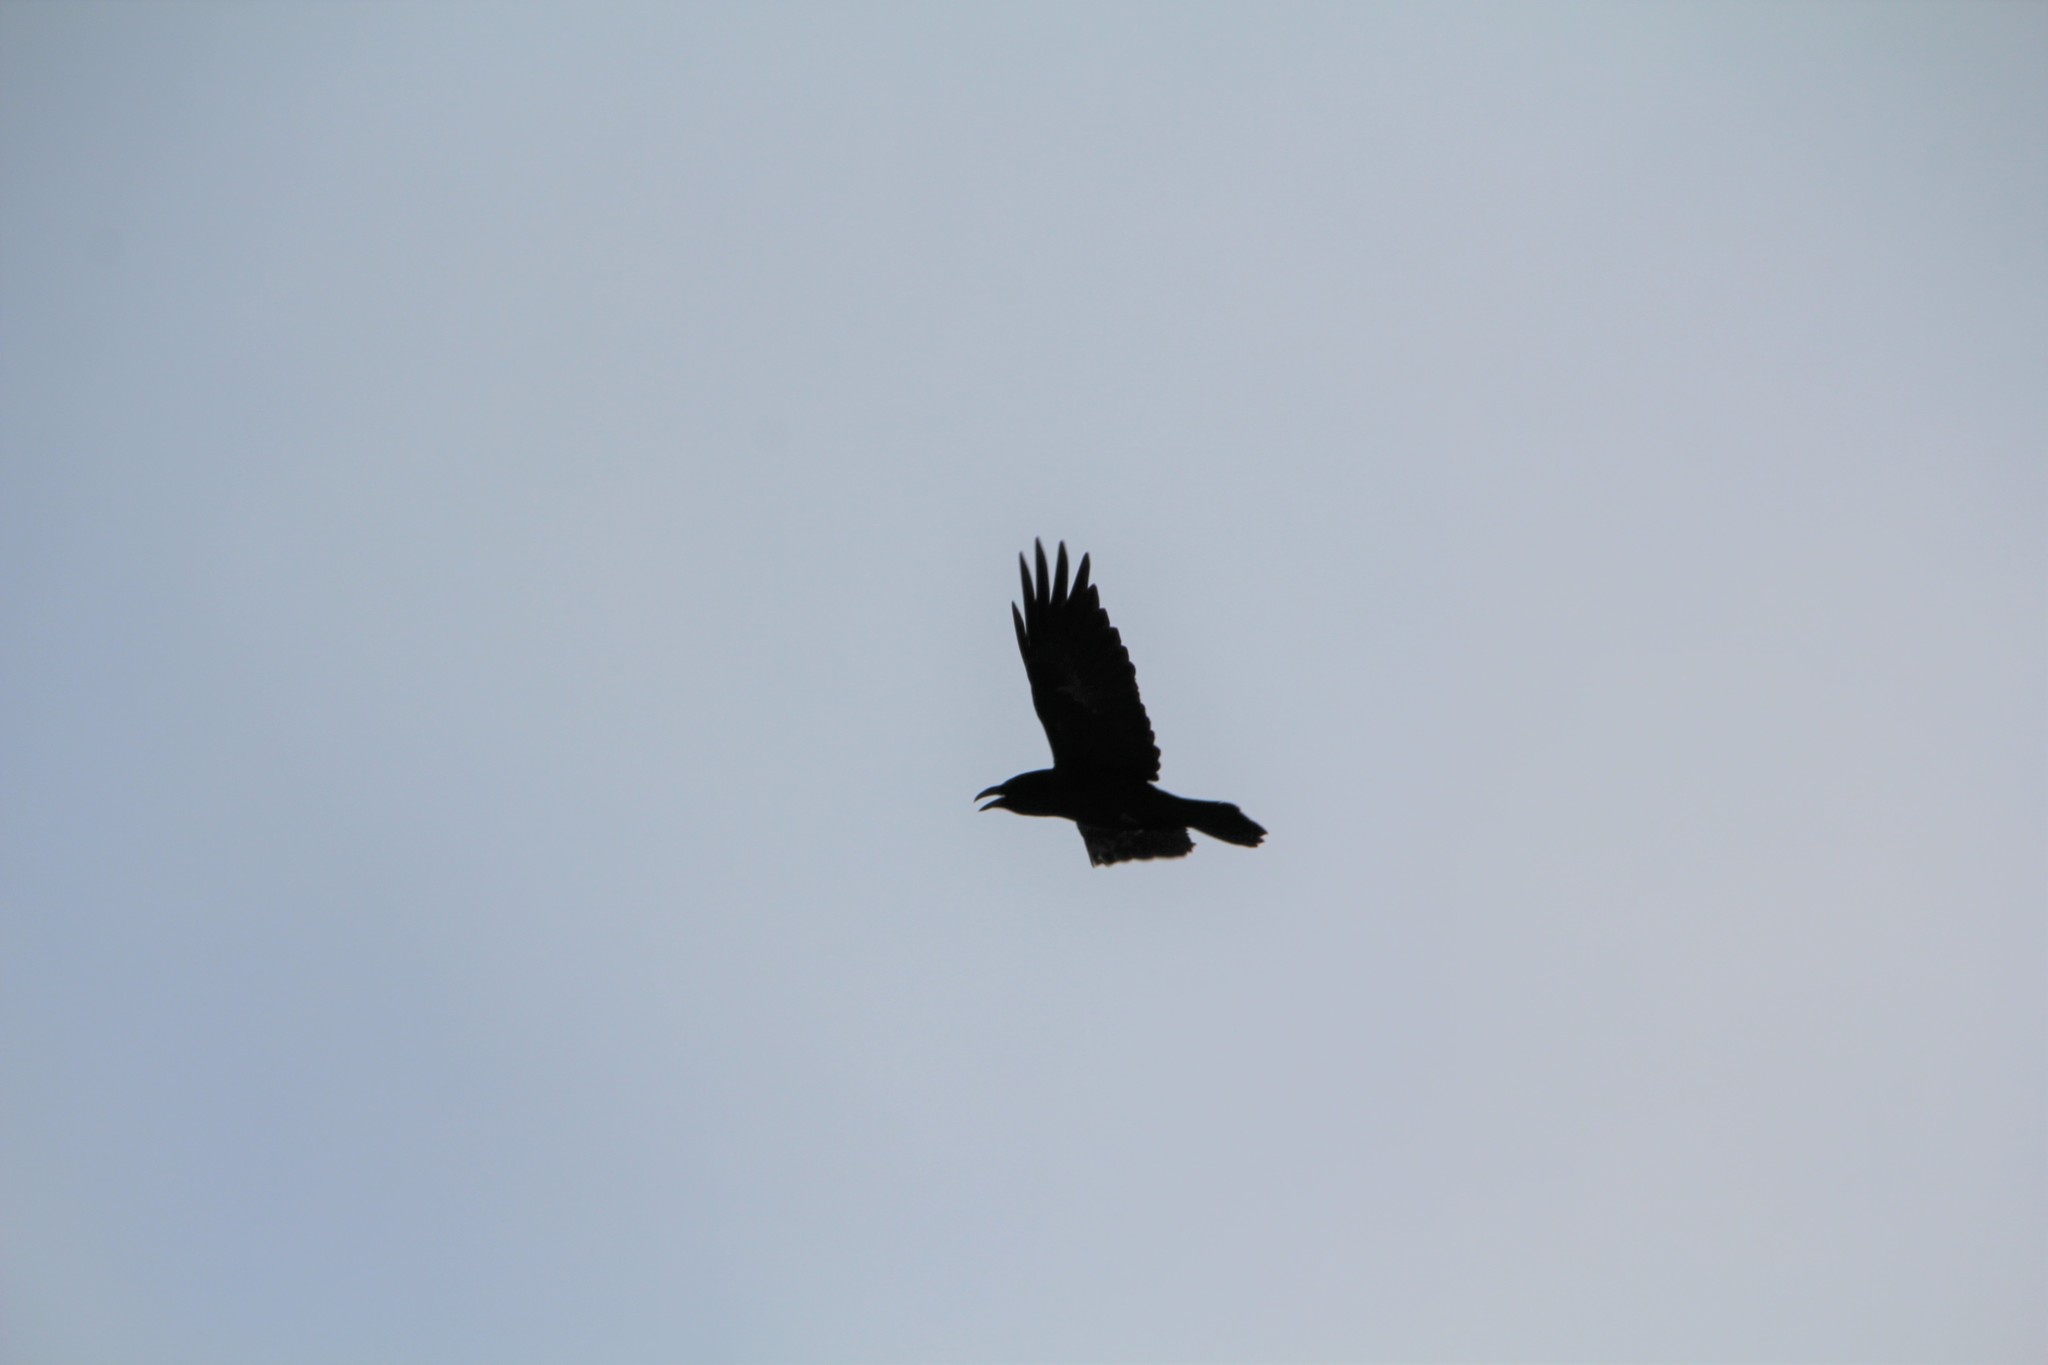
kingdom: Animalia
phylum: Chordata
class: Aves
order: Passeriformes
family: Corvidae
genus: Corvus
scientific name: Corvus corax
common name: Common raven
